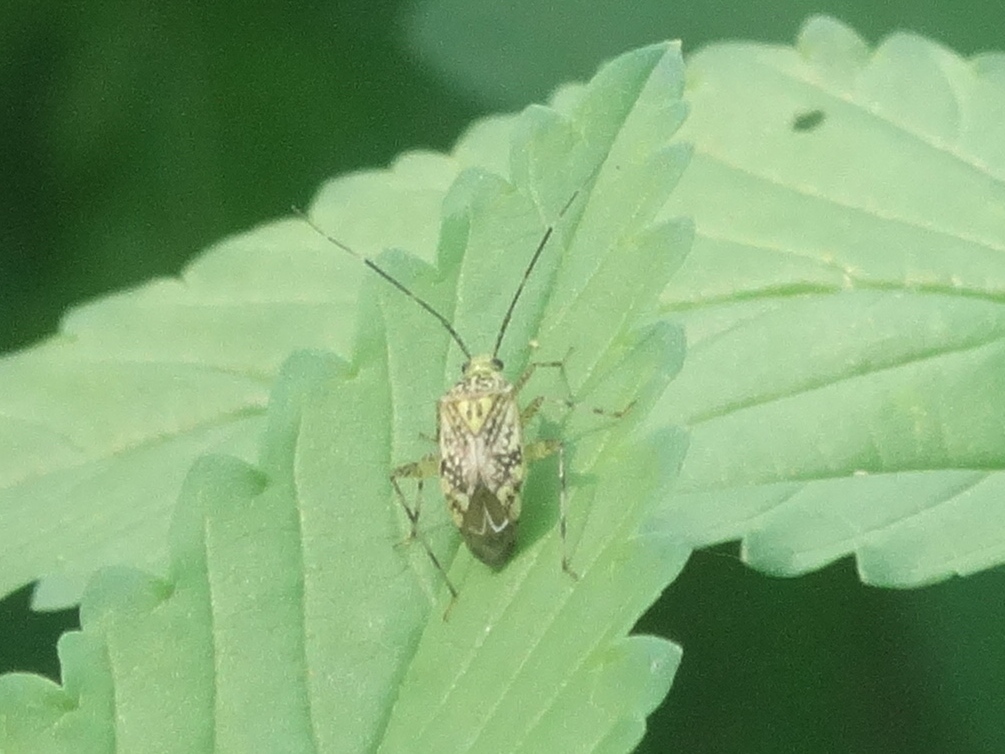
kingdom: Animalia
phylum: Arthropoda
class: Insecta
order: Hemiptera
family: Miridae
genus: Taedia
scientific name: Taedia marmorata
